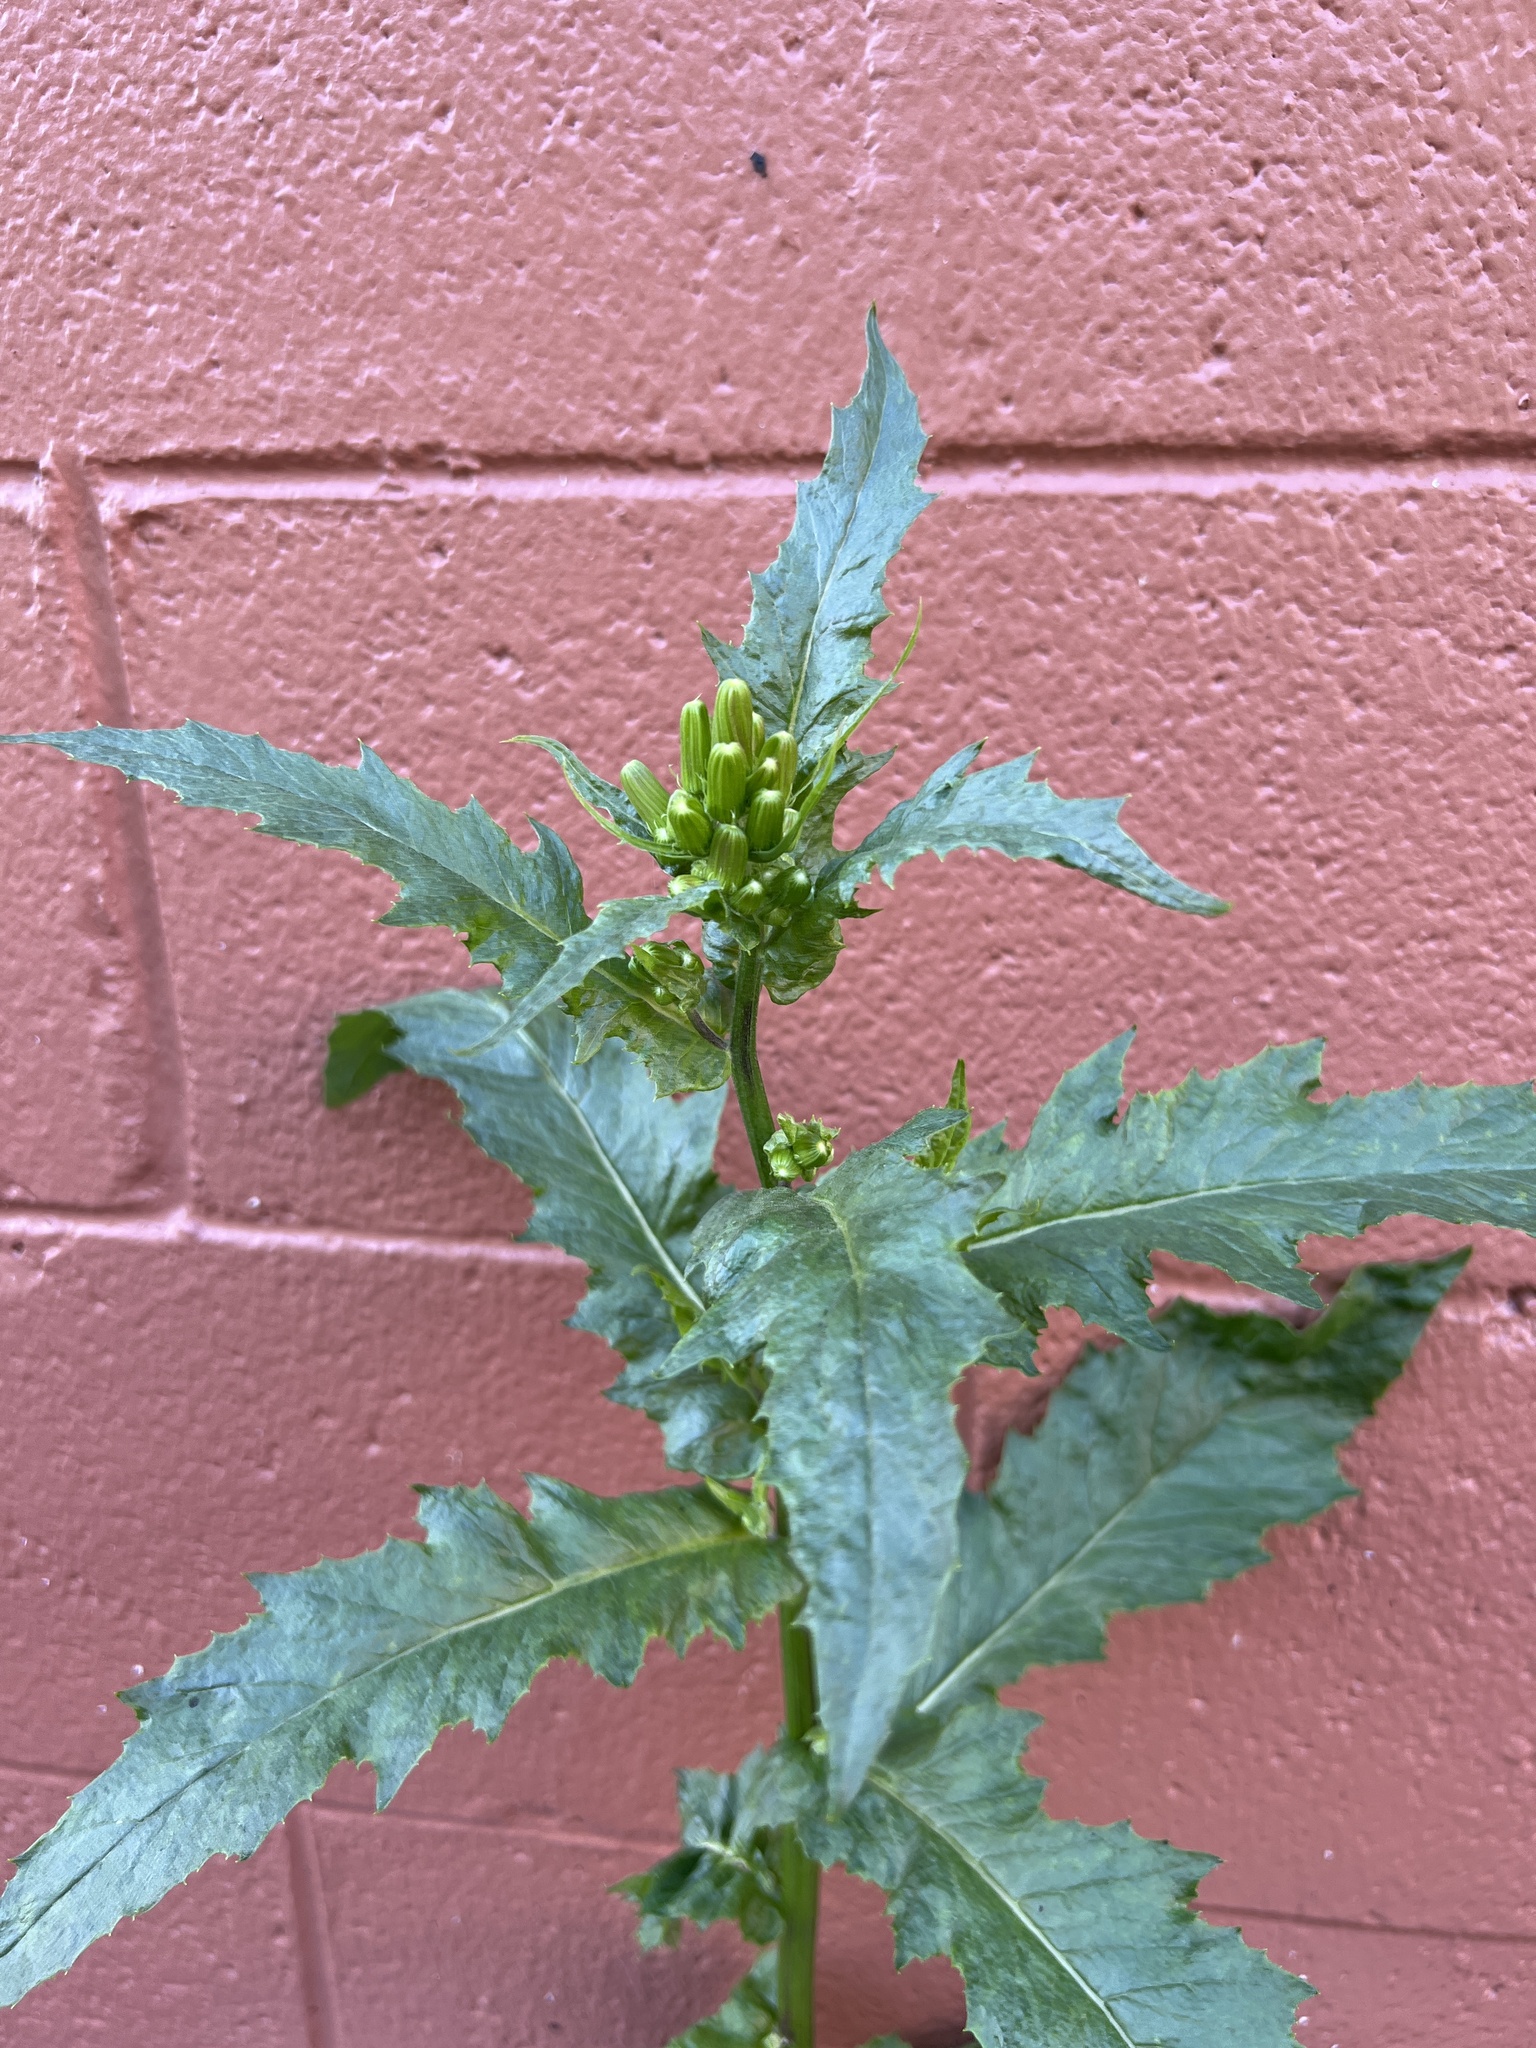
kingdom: Plantae
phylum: Tracheophyta
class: Magnoliopsida
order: Asterales
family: Asteraceae
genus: Erechtites
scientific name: Erechtites hieraciifolius
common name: American burnweed
